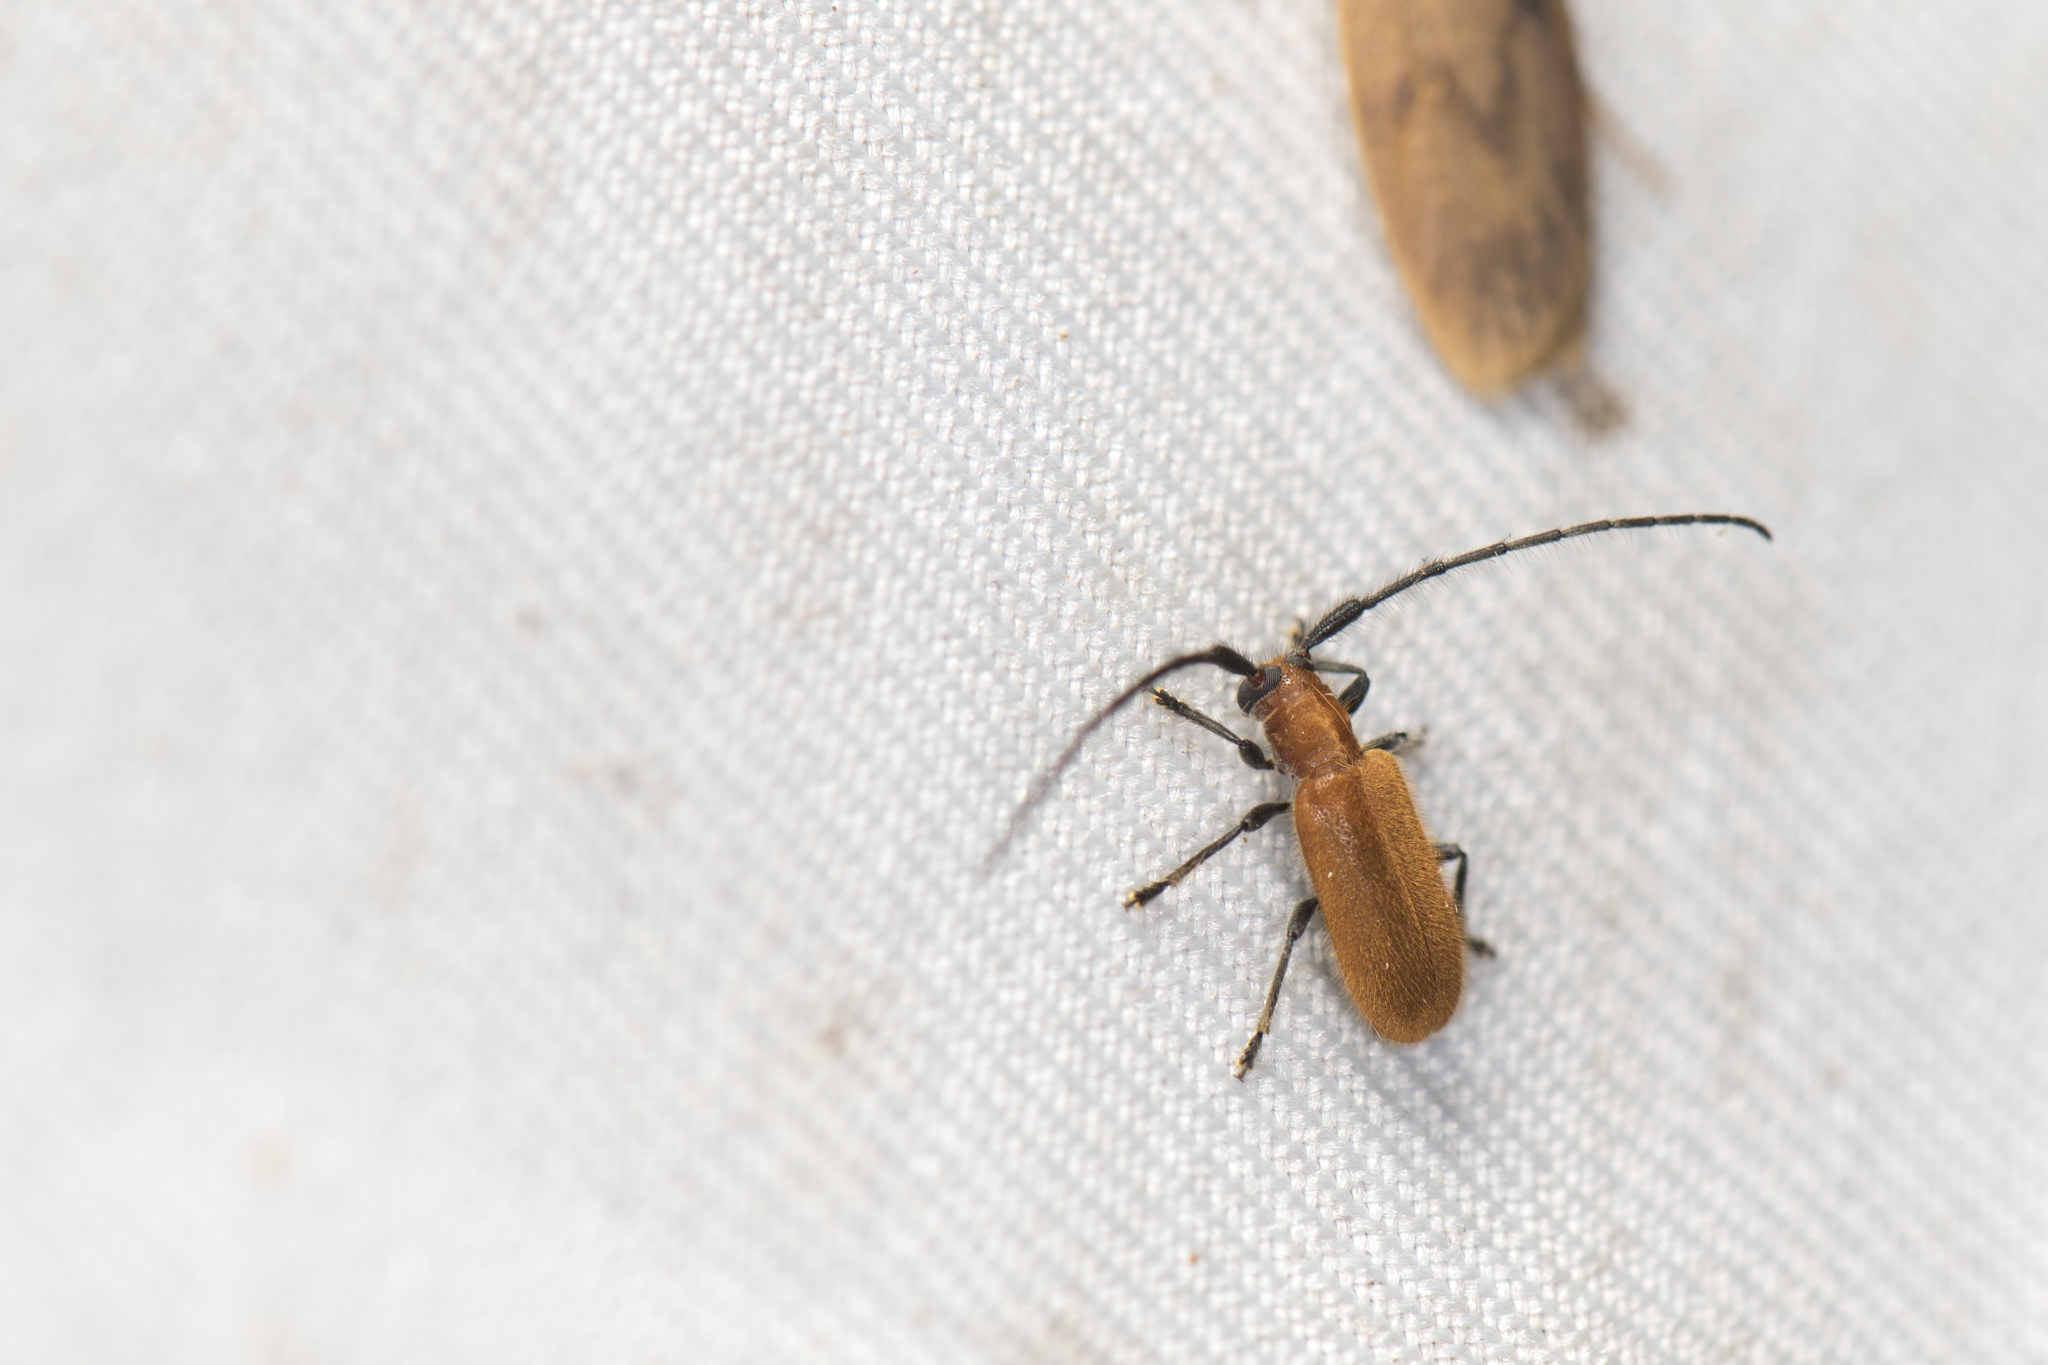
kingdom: Animalia
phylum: Arthropoda
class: Insecta
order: Coleoptera
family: Cerambycidae
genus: Penthides
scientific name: Penthides flavus
